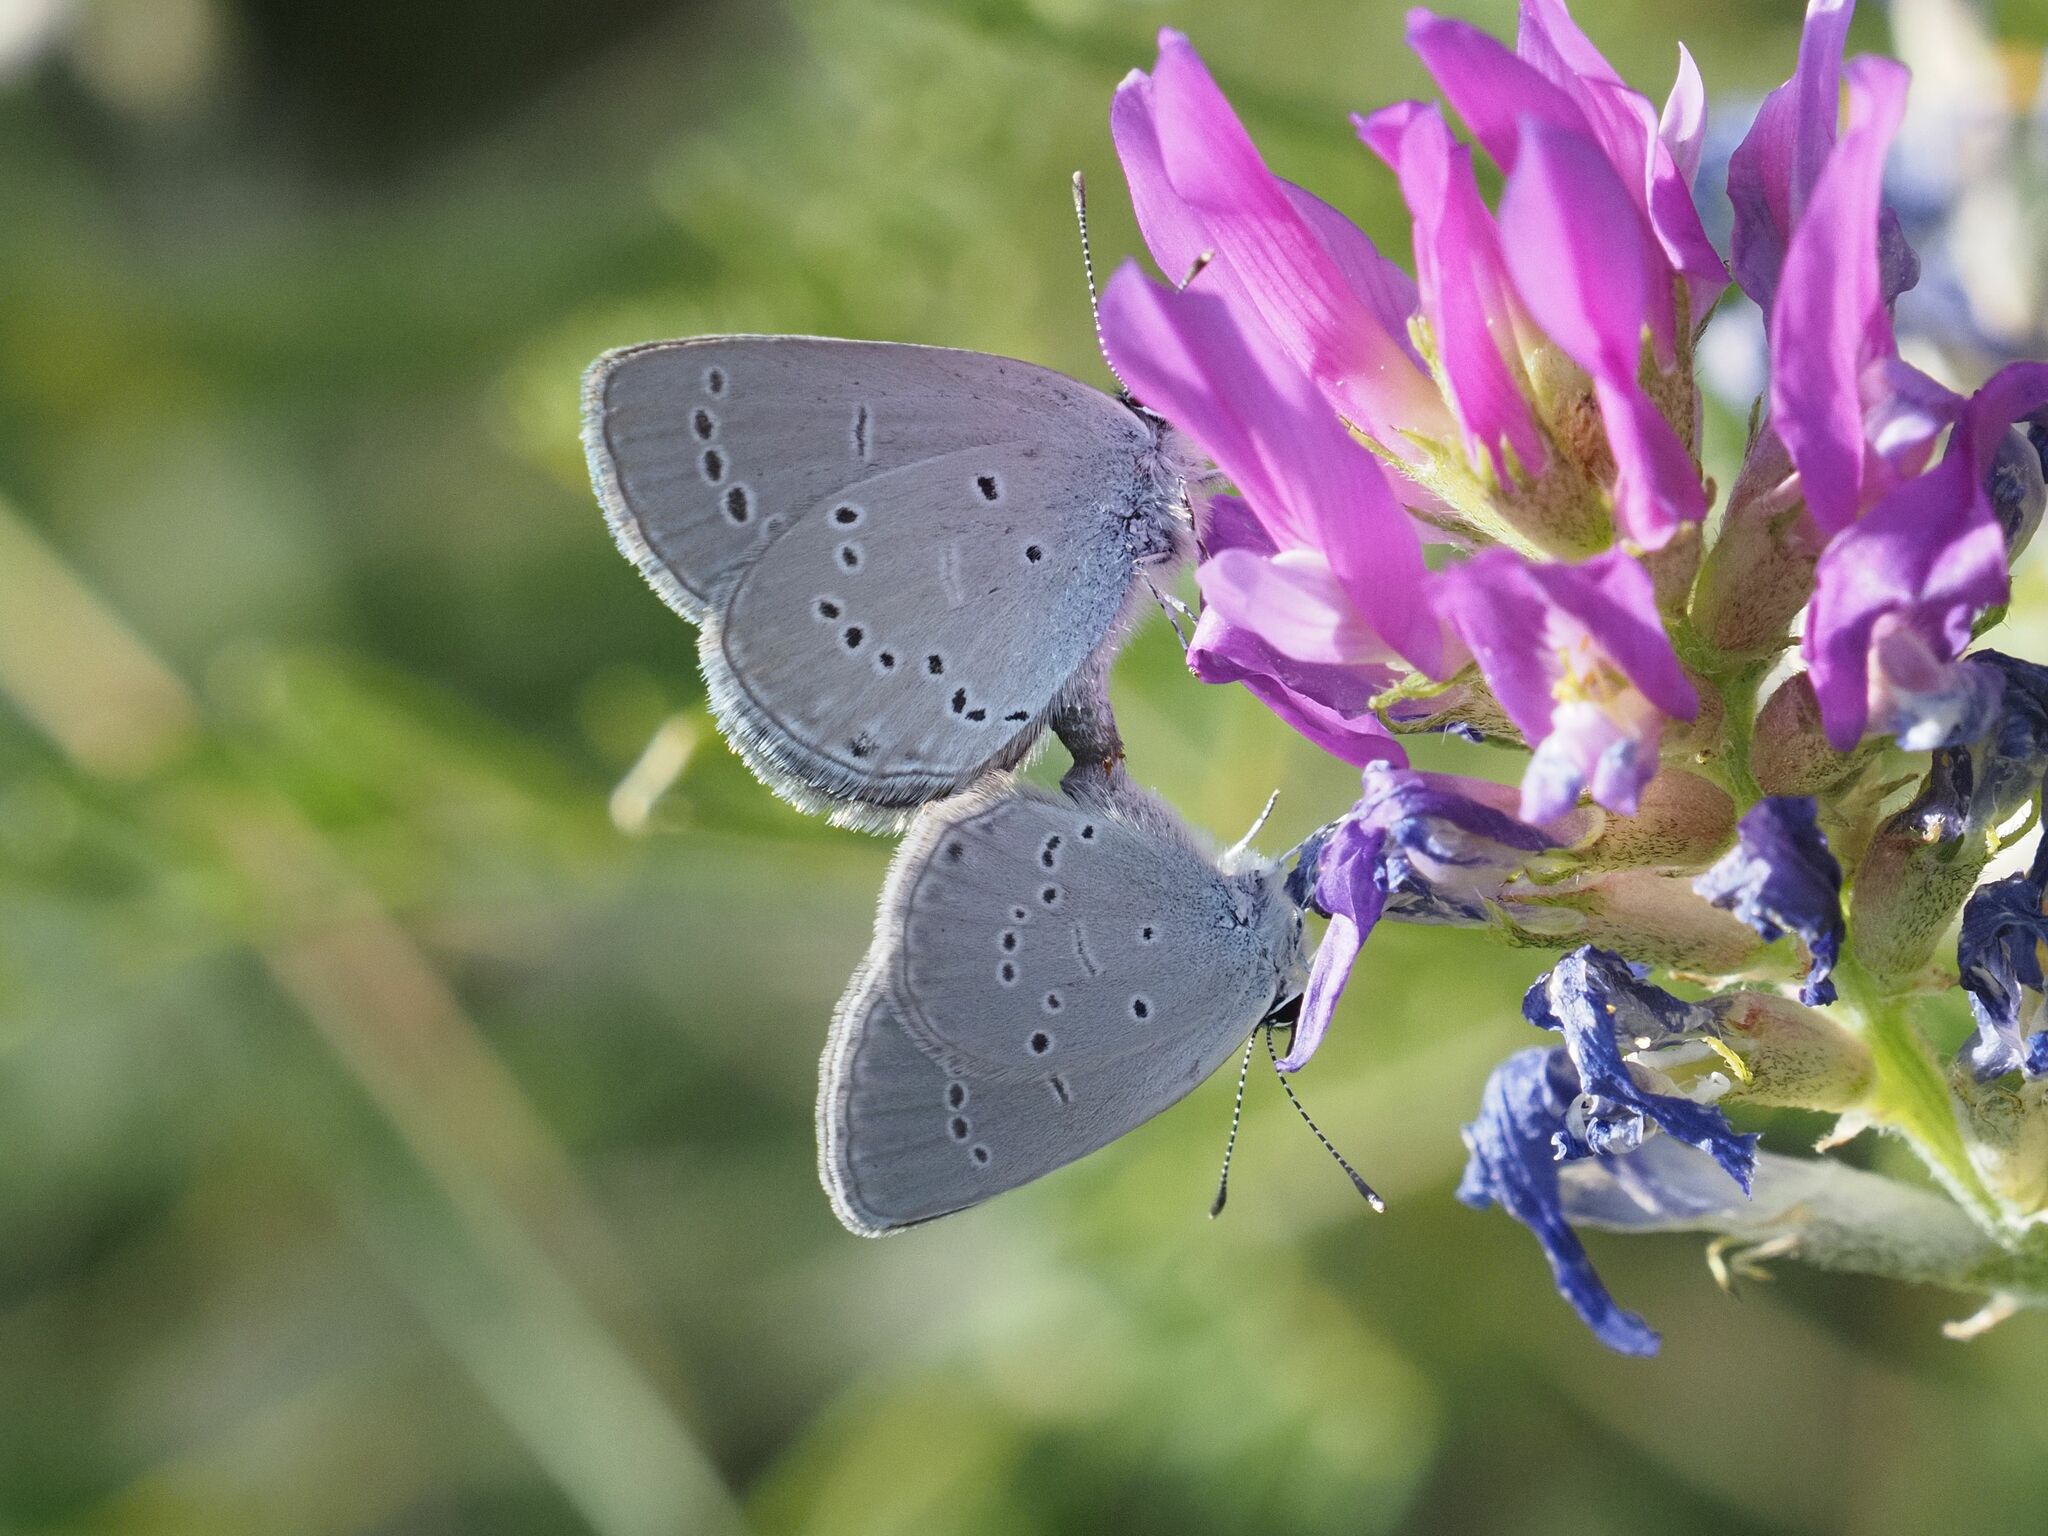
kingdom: Animalia
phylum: Arthropoda
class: Insecta
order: Lepidoptera
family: Lycaenidae
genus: Cupido
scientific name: Cupido minimus
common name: Small blue
